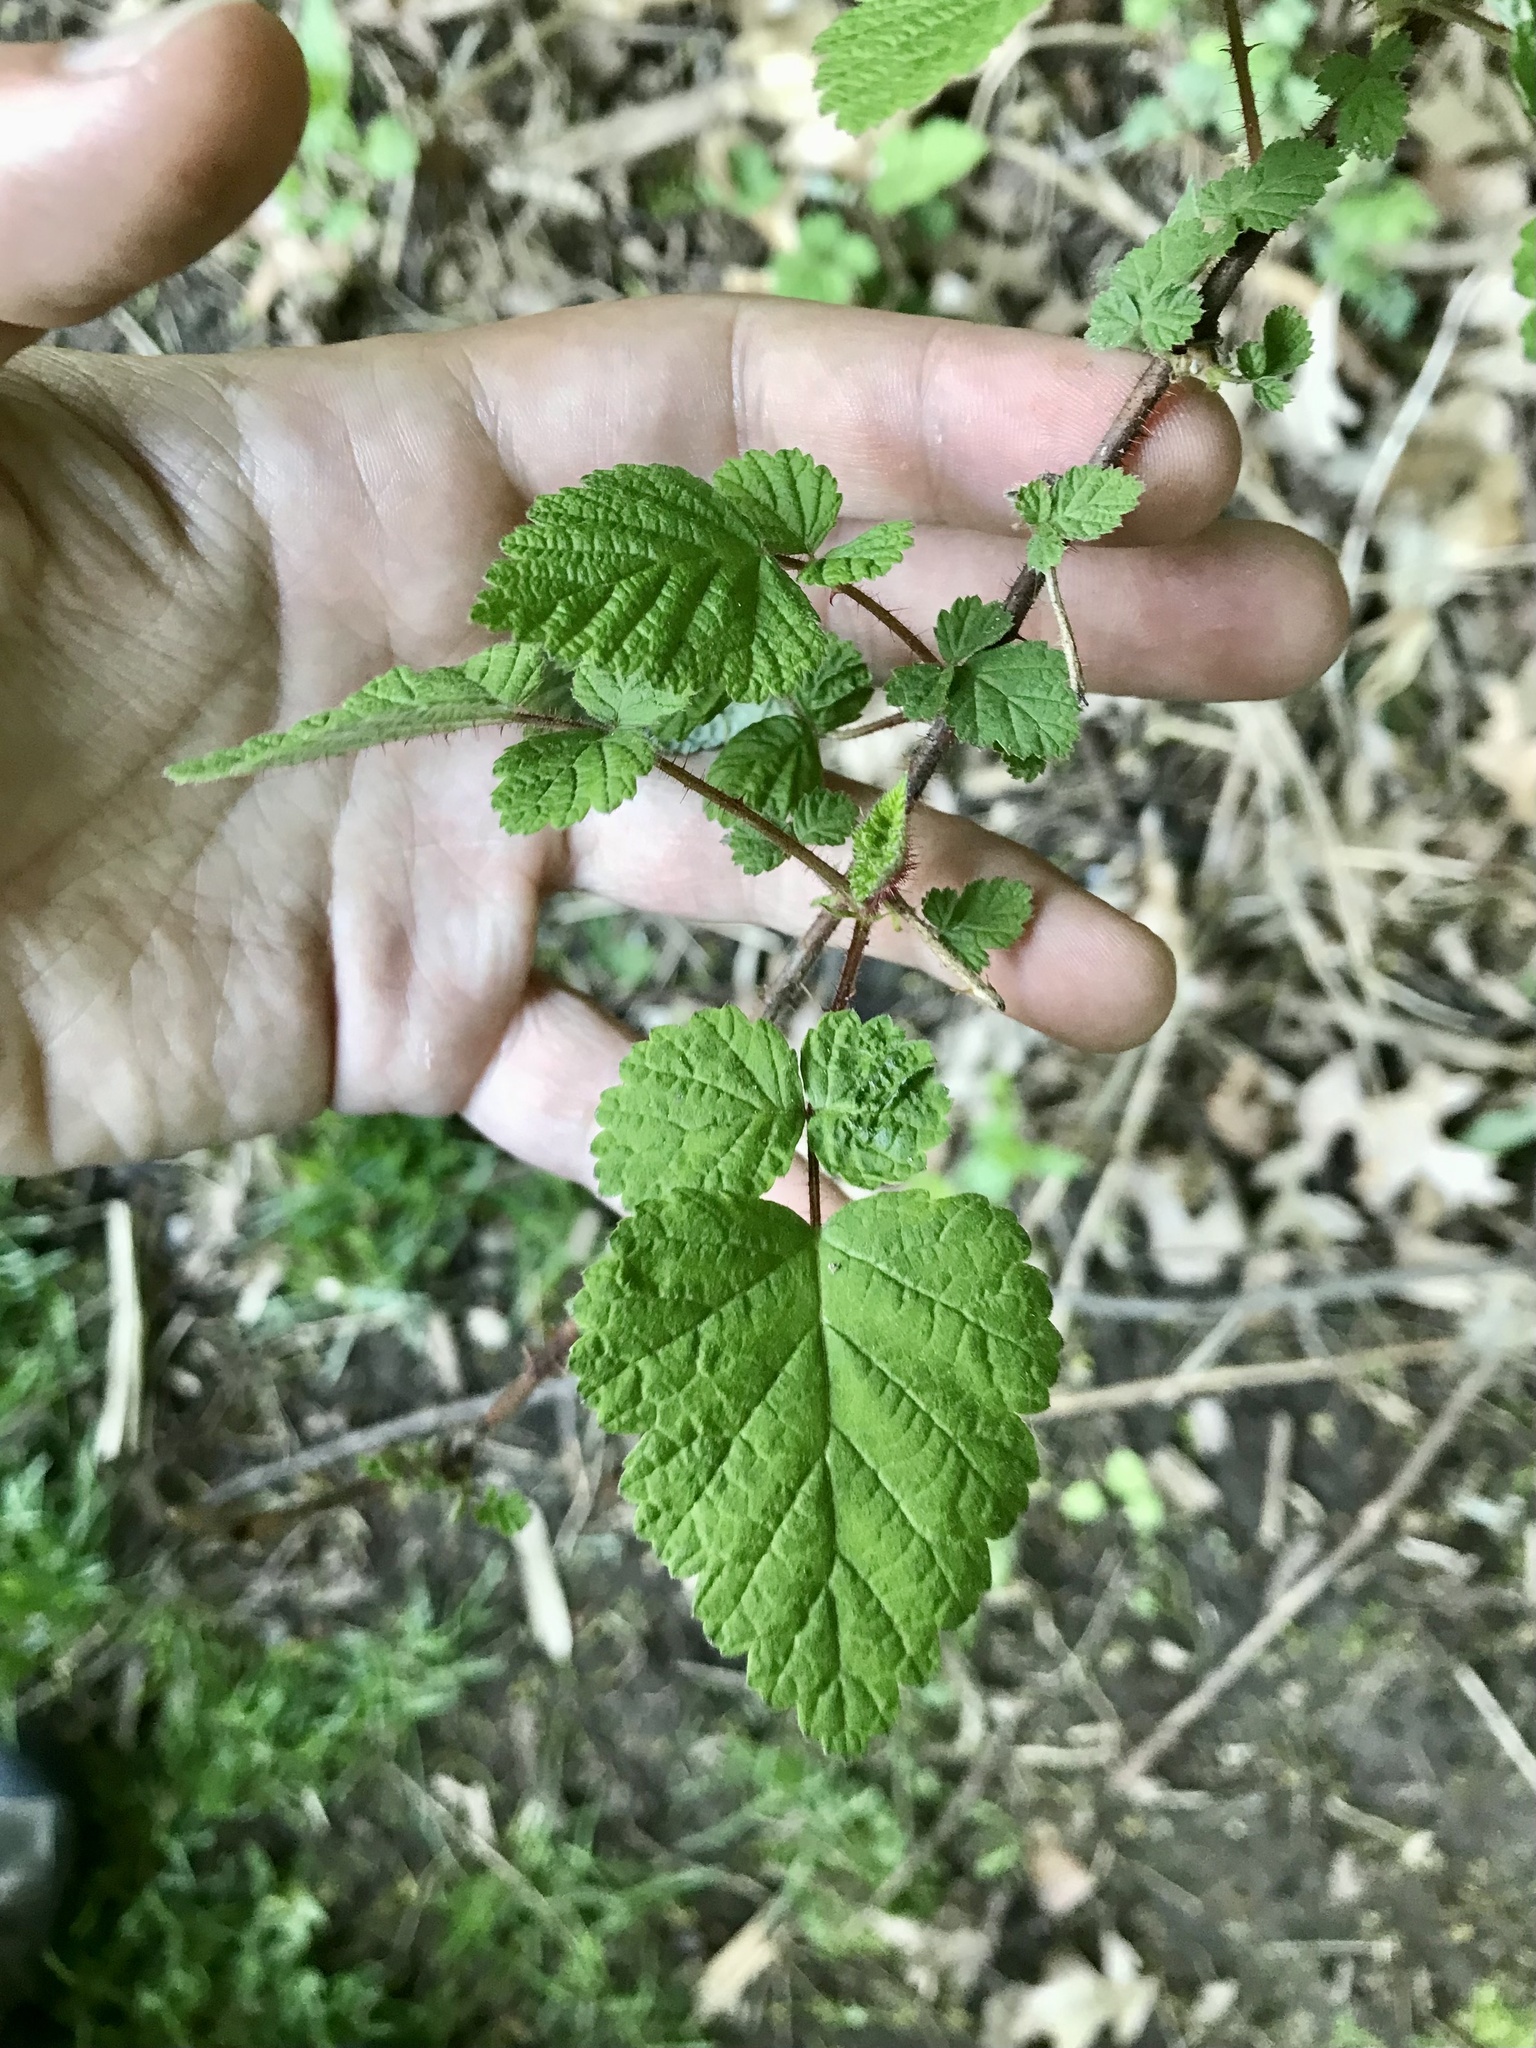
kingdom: Plantae
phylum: Tracheophyta
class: Magnoliopsida
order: Rosales
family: Rosaceae
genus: Rubus
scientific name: Rubus phoenicolasius
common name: Japanese wineberry
